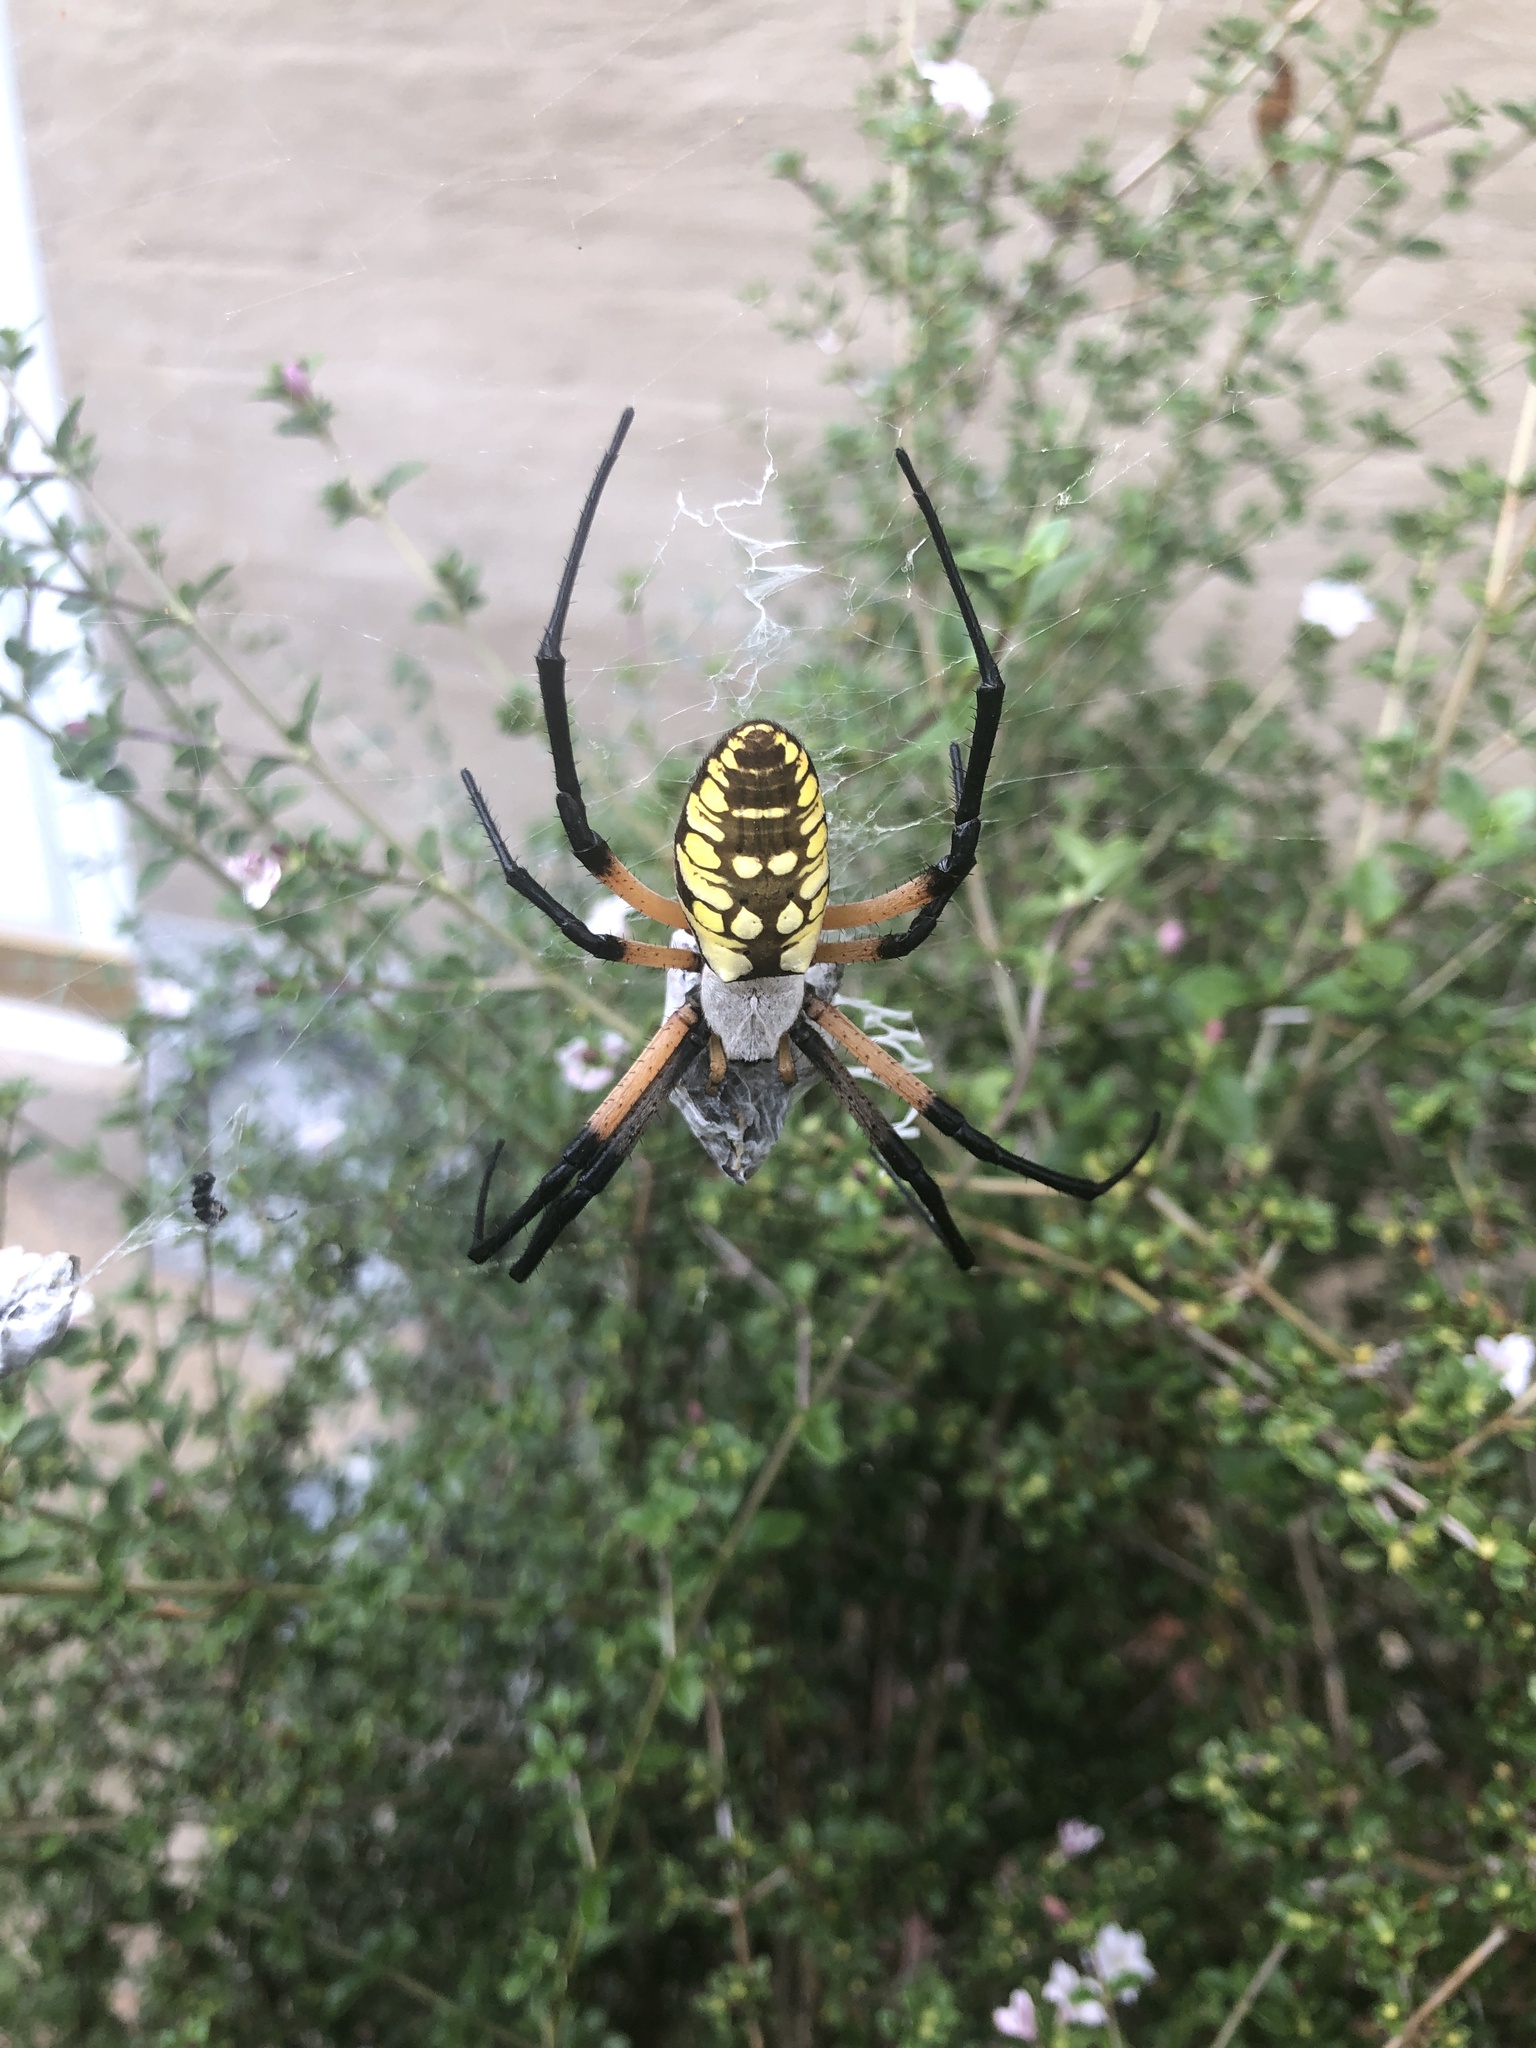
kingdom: Animalia
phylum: Arthropoda
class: Arachnida
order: Araneae
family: Araneidae
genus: Argiope
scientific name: Argiope aurantia
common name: Orb weavers
